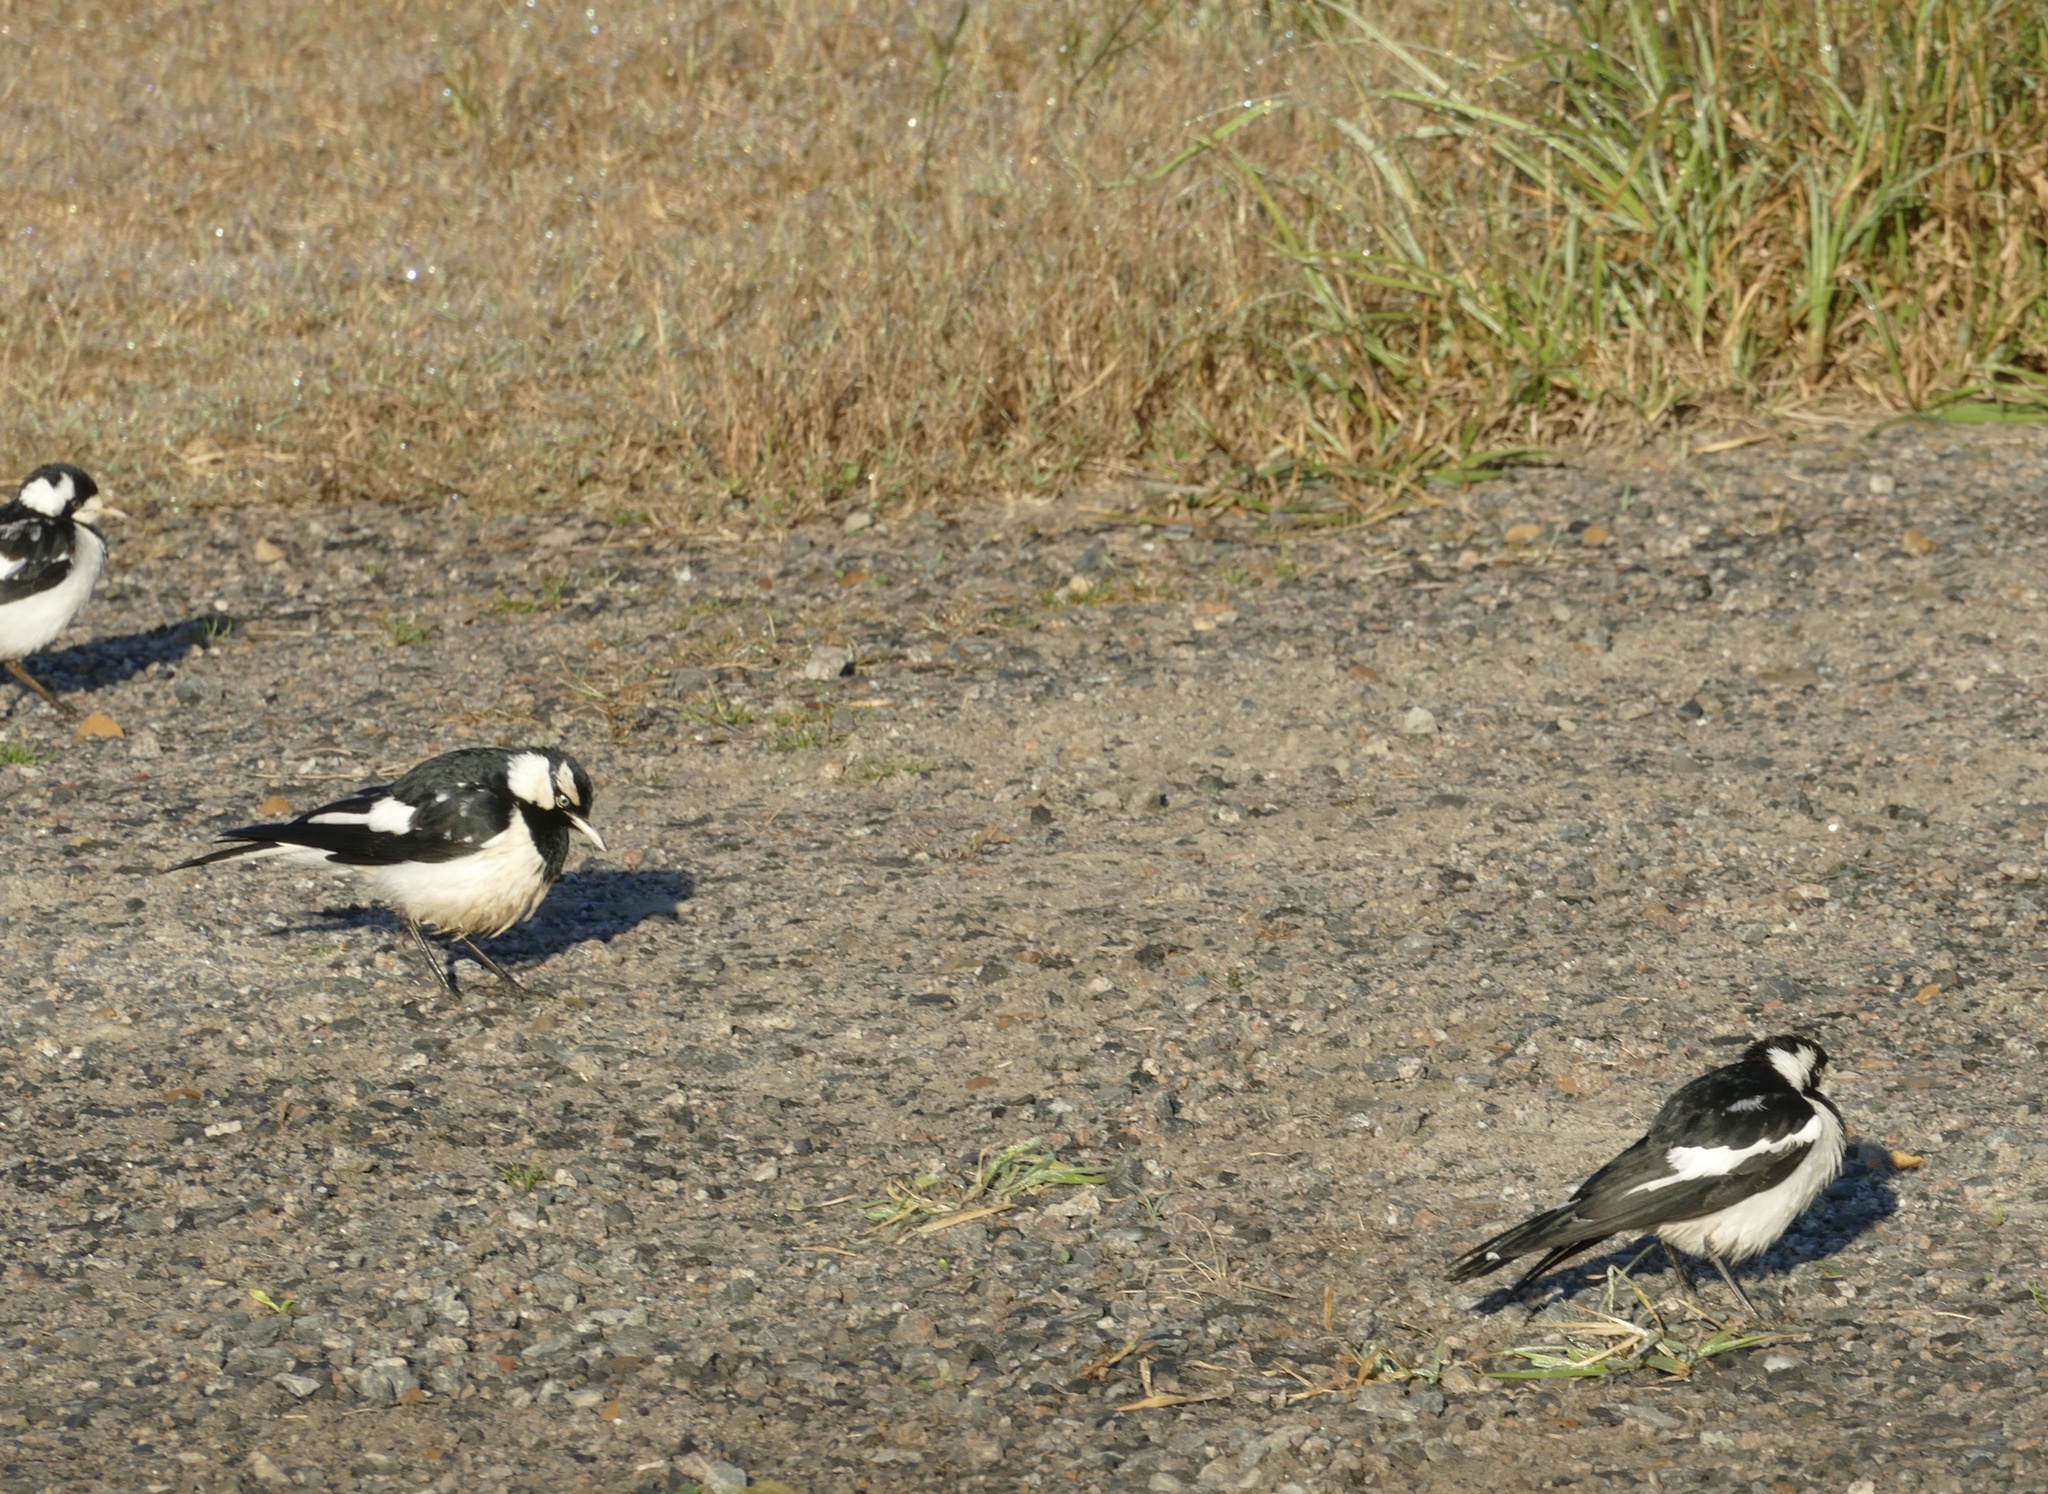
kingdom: Animalia
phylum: Chordata
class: Aves
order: Passeriformes
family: Monarchidae
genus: Grallina
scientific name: Grallina cyanoleuca
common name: Magpie-lark
